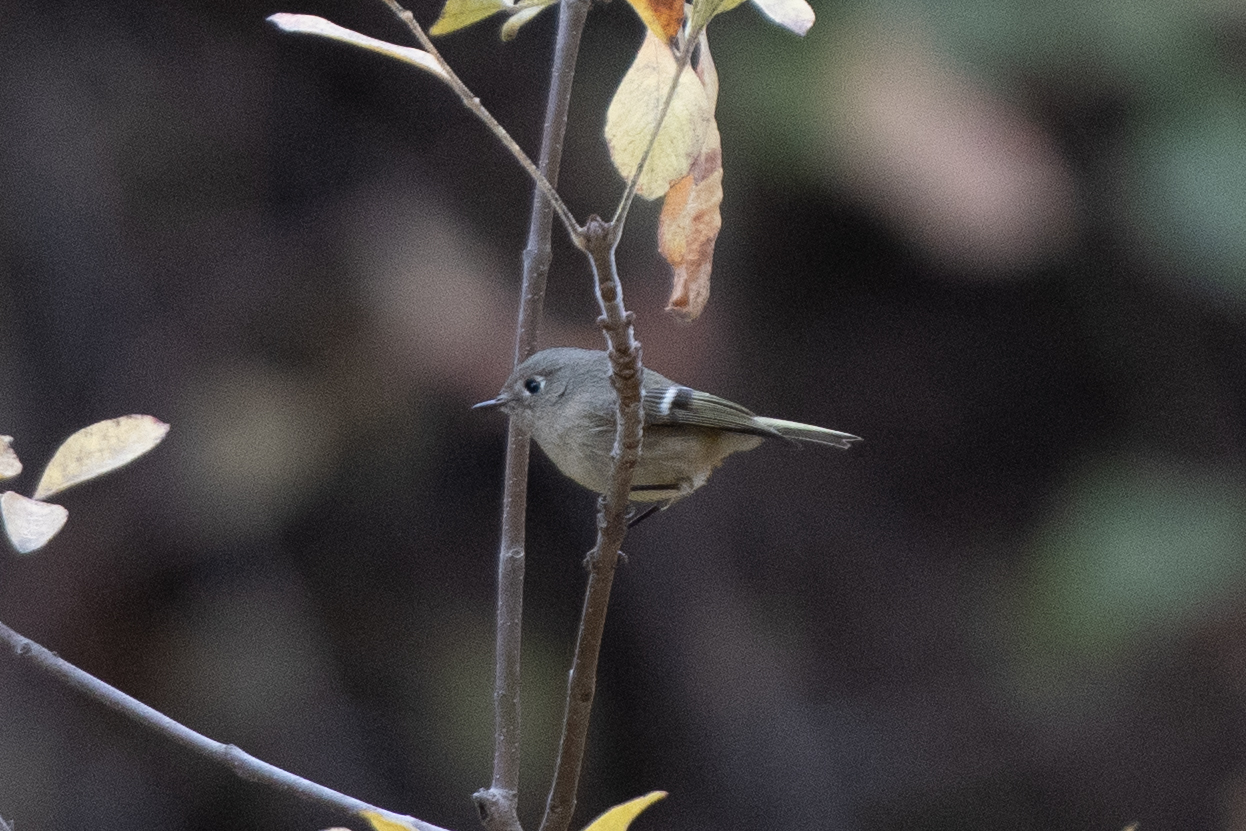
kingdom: Animalia
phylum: Chordata
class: Aves
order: Passeriformes
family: Regulidae
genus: Regulus
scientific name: Regulus calendula
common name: Ruby-crowned kinglet
